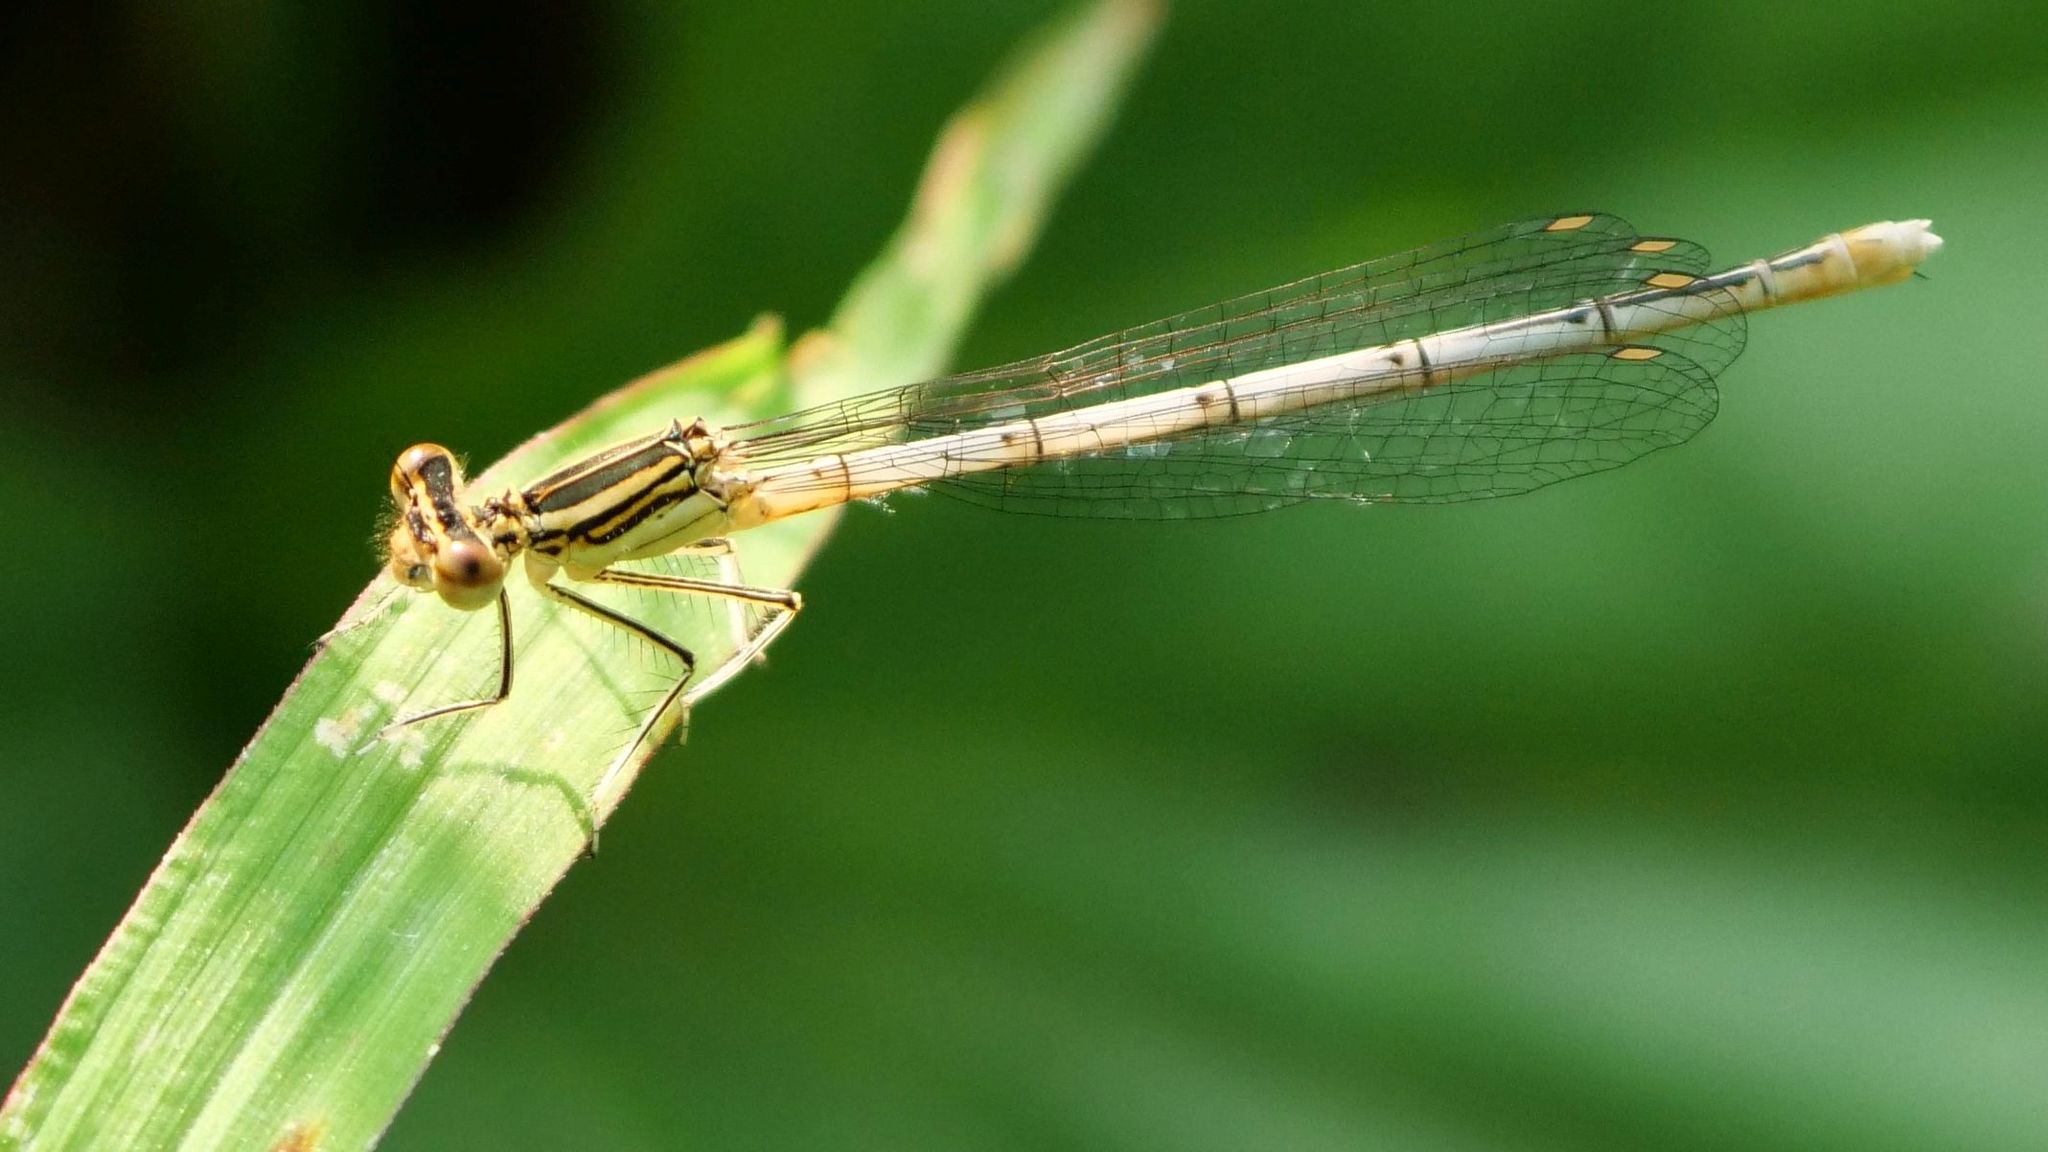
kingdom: Animalia
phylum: Arthropoda
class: Insecta
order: Odonata
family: Platycnemididae
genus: Platycnemis
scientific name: Platycnemis pennipes
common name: White-legged damselfly
